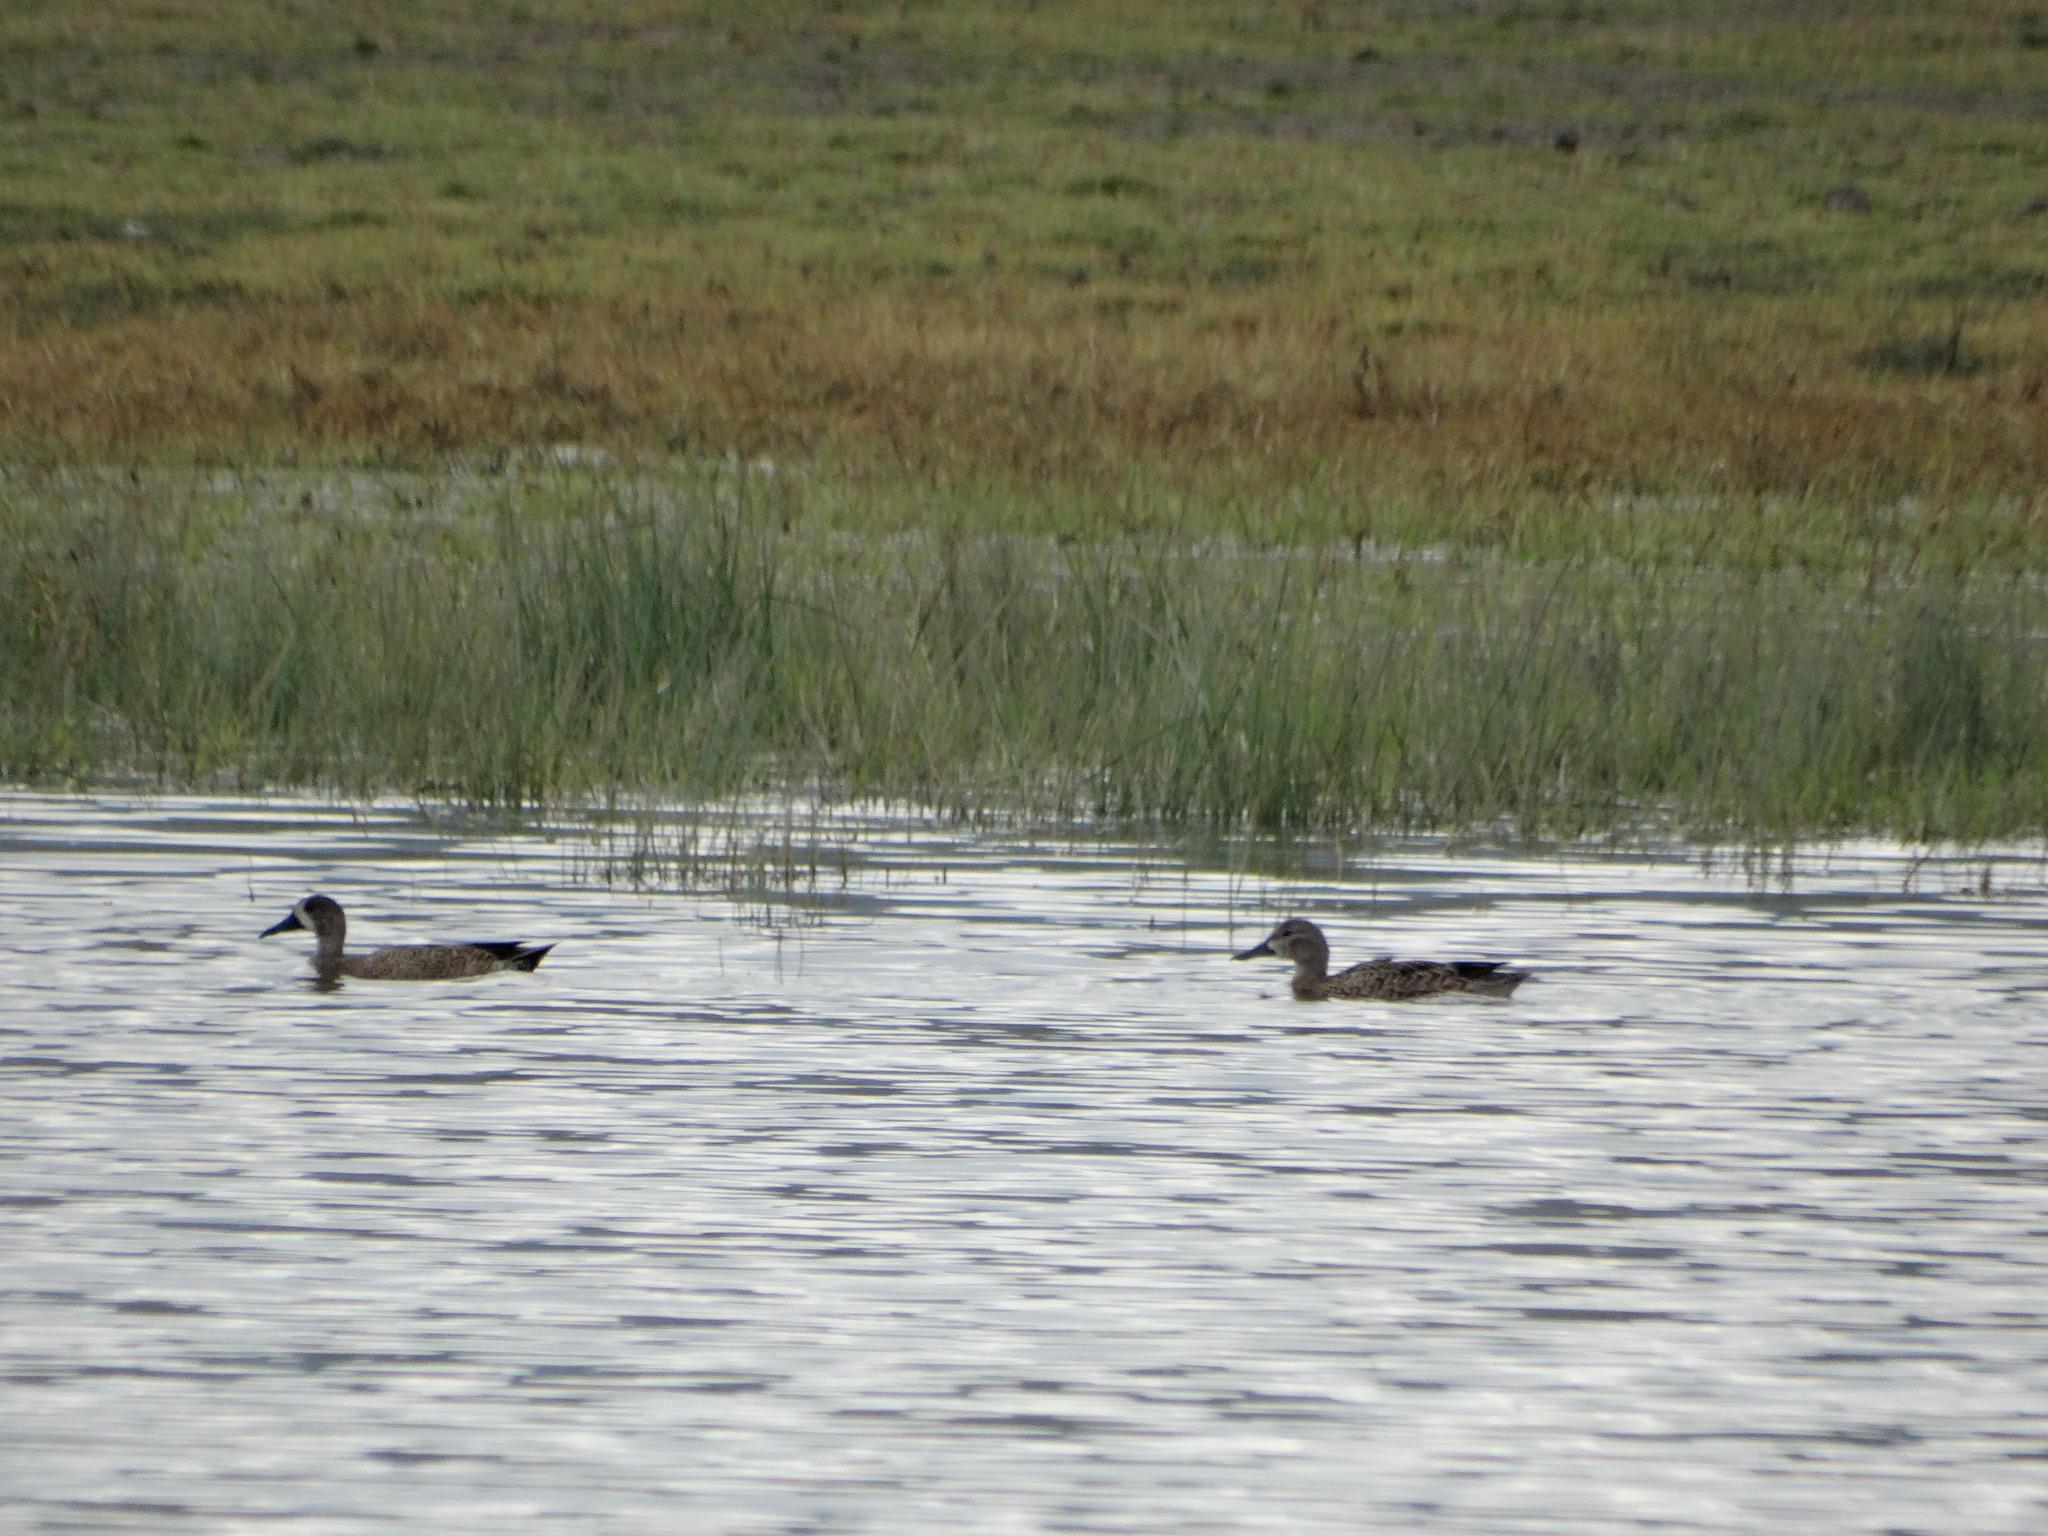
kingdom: Animalia
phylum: Chordata
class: Aves
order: Anseriformes
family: Anatidae
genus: Spatula
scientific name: Spatula discors
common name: Blue-winged teal
